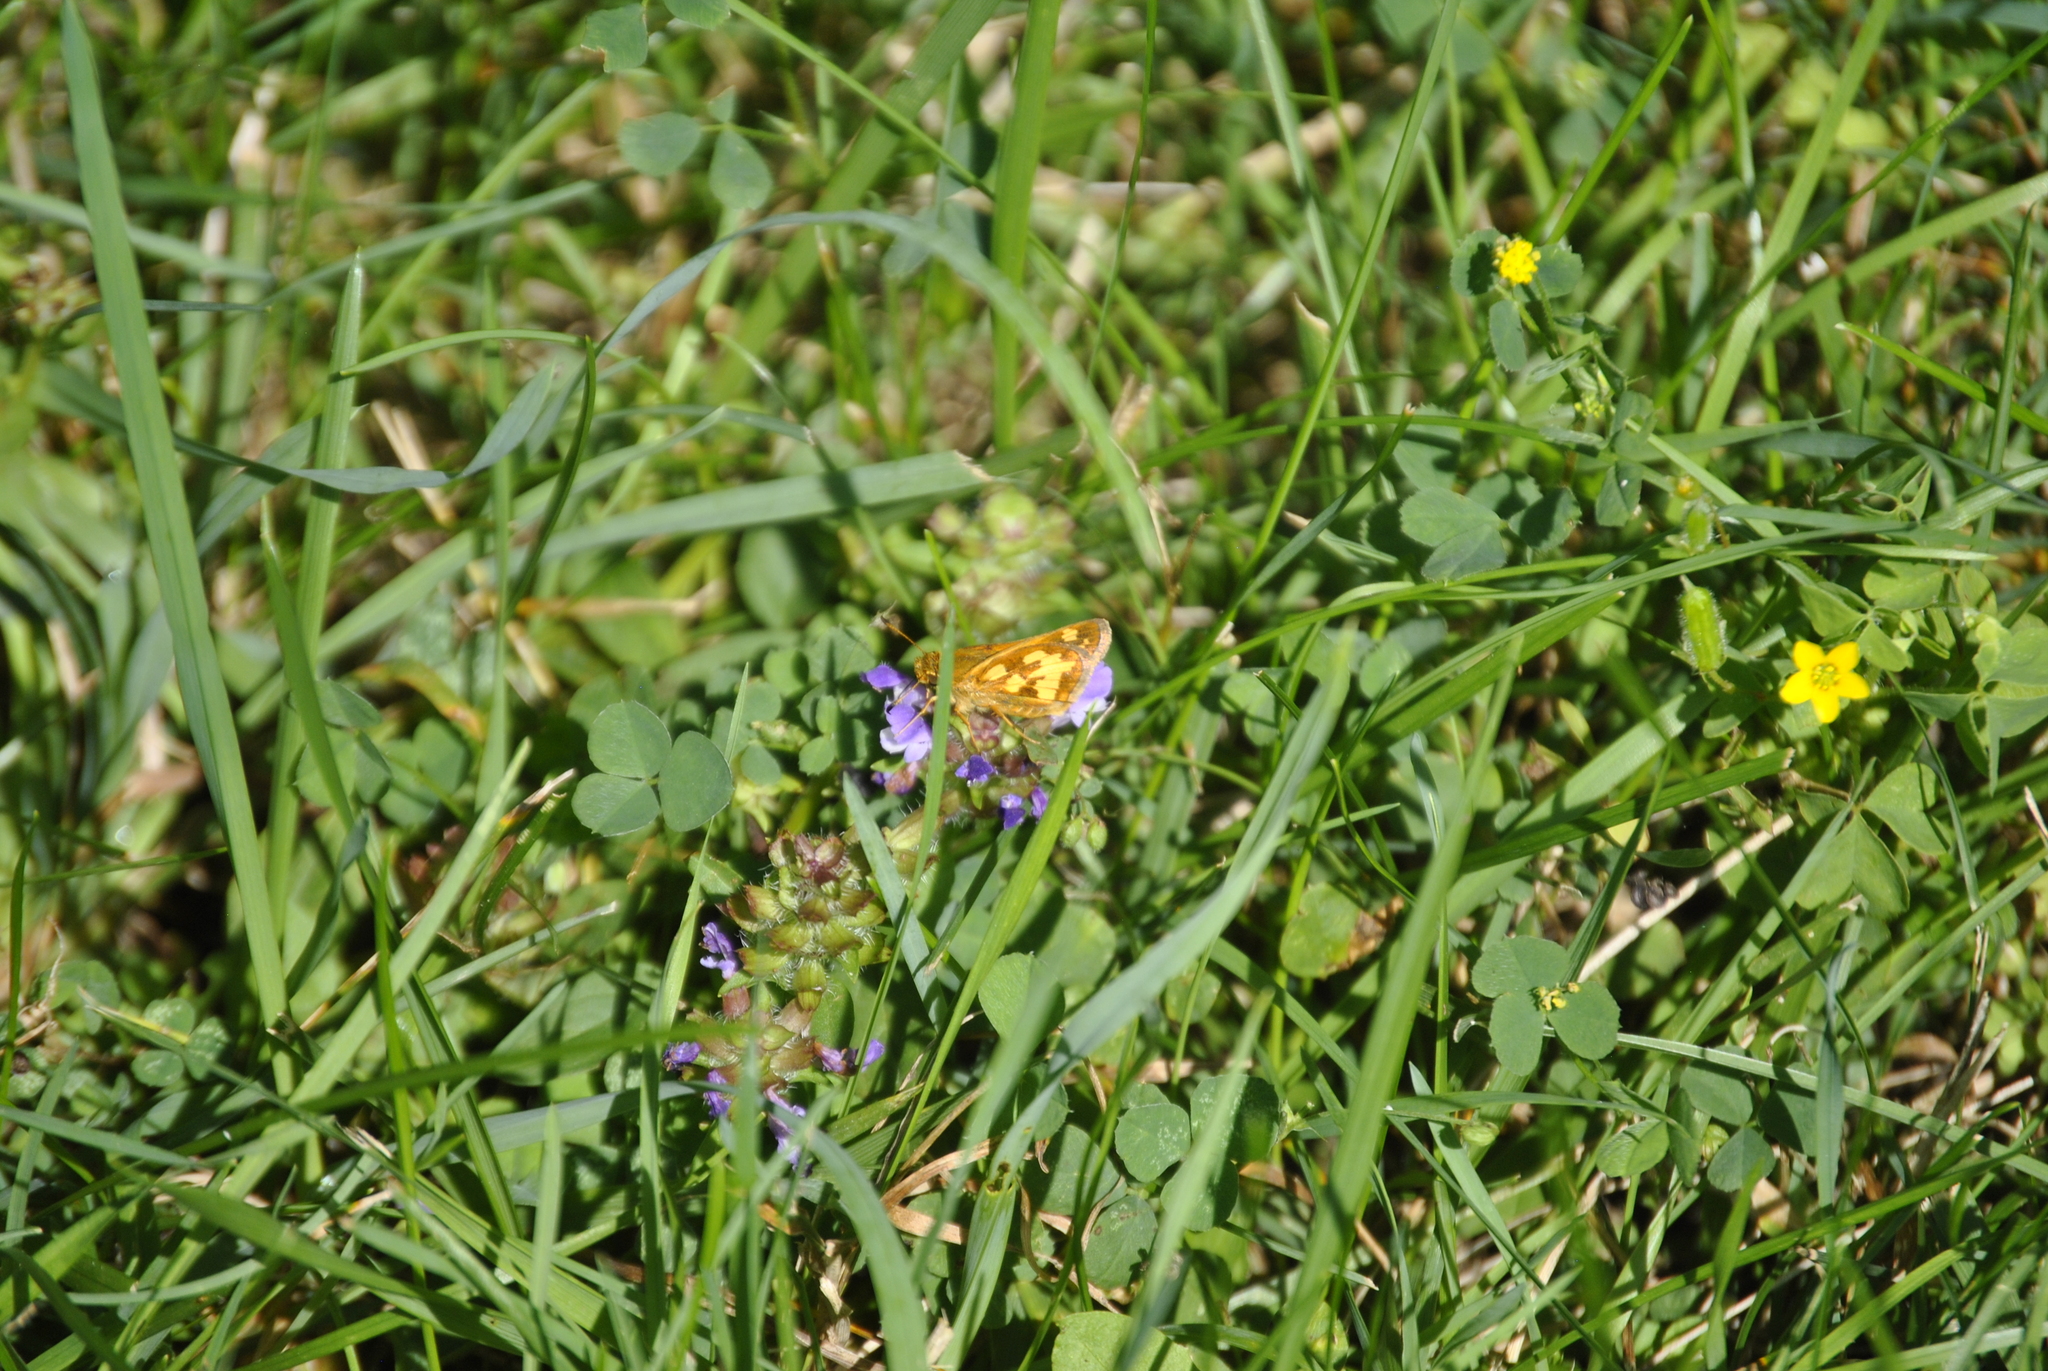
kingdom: Animalia
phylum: Arthropoda
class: Insecta
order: Lepidoptera
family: Hesperiidae
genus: Polites
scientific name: Polites coras
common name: Peck's skipper
